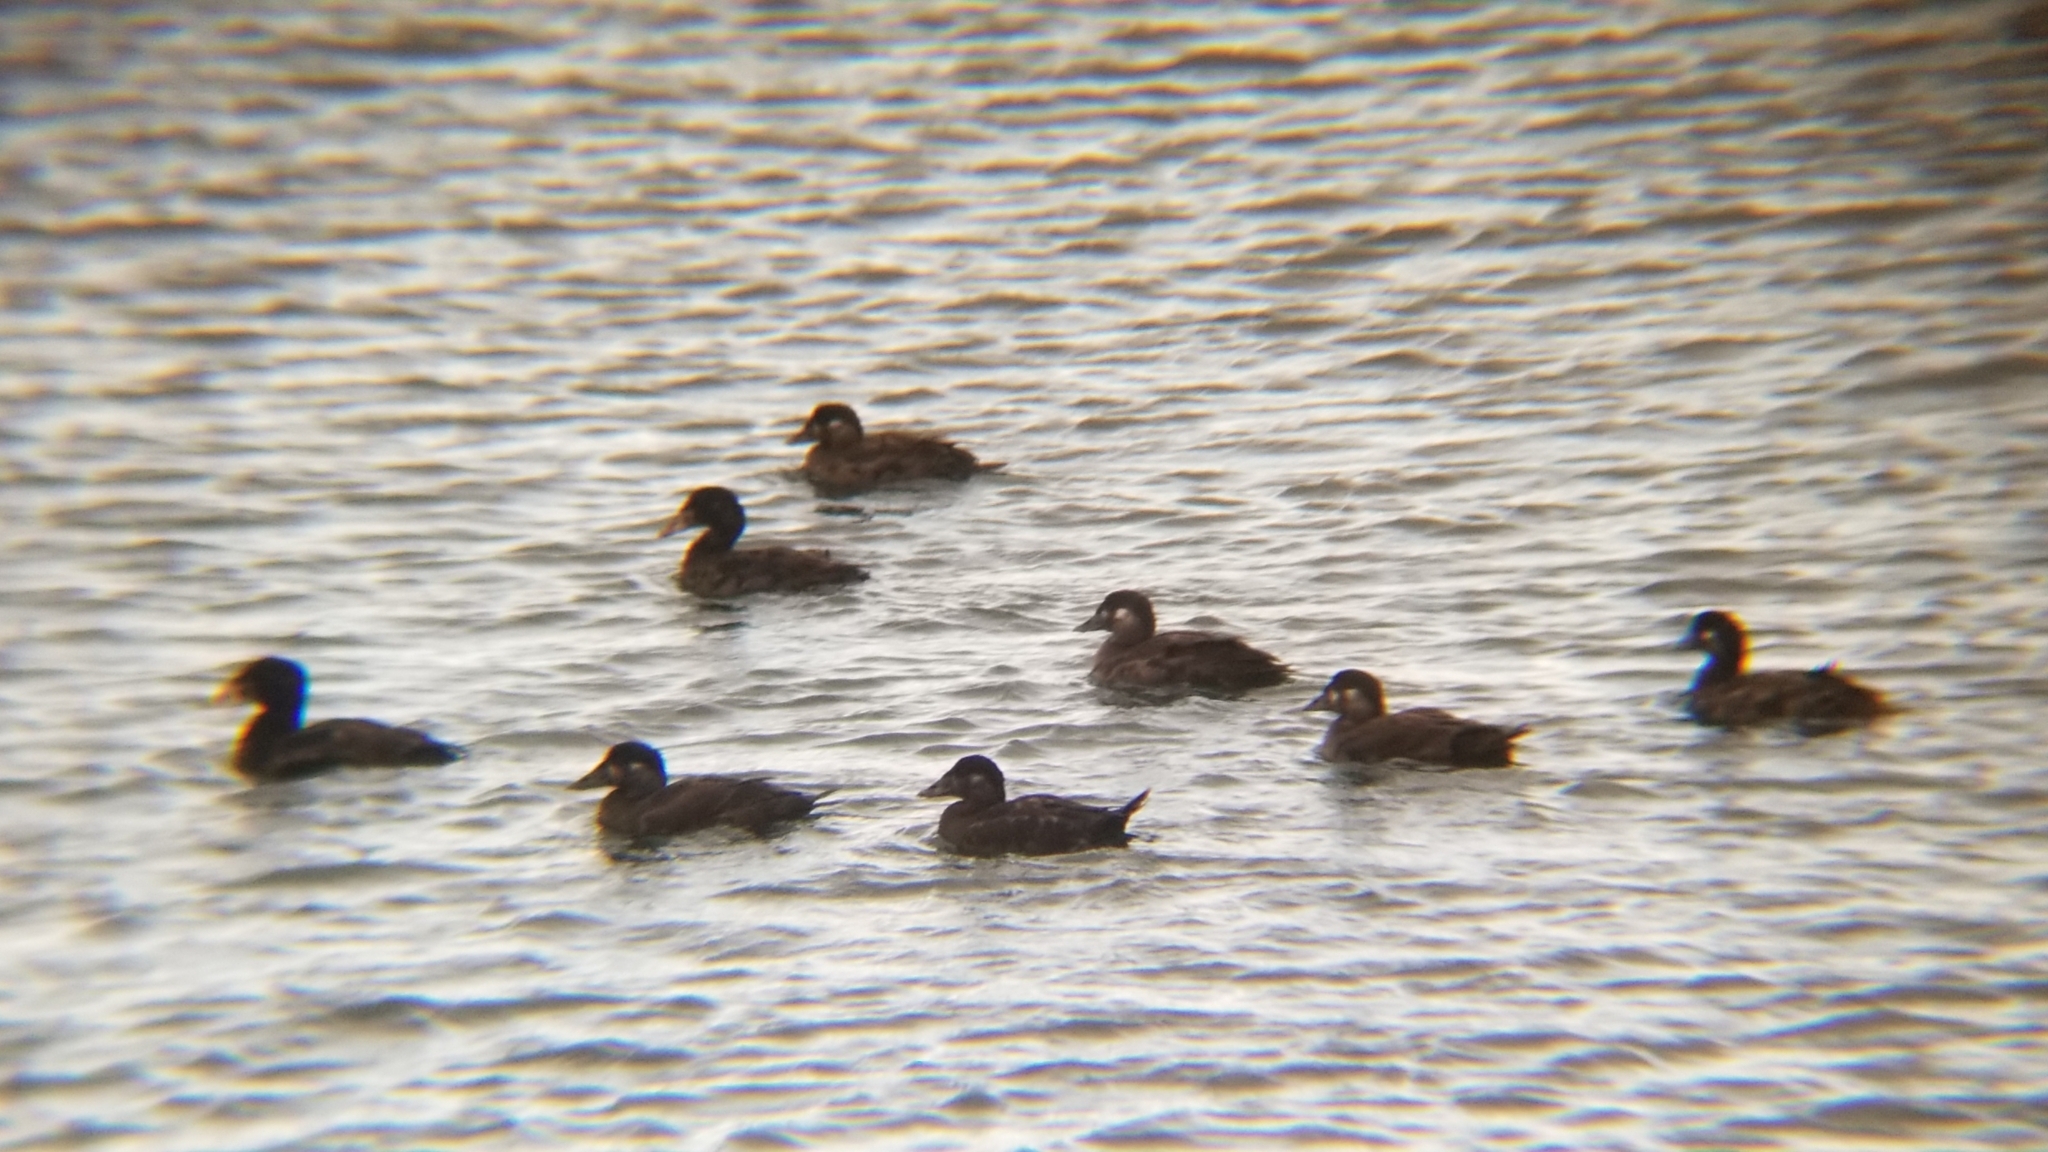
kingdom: Animalia
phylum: Chordata
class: Aves
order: Anseriformes
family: Anatidae
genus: Melanitta
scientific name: Melanitta perspicillata
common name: Surf scoter
